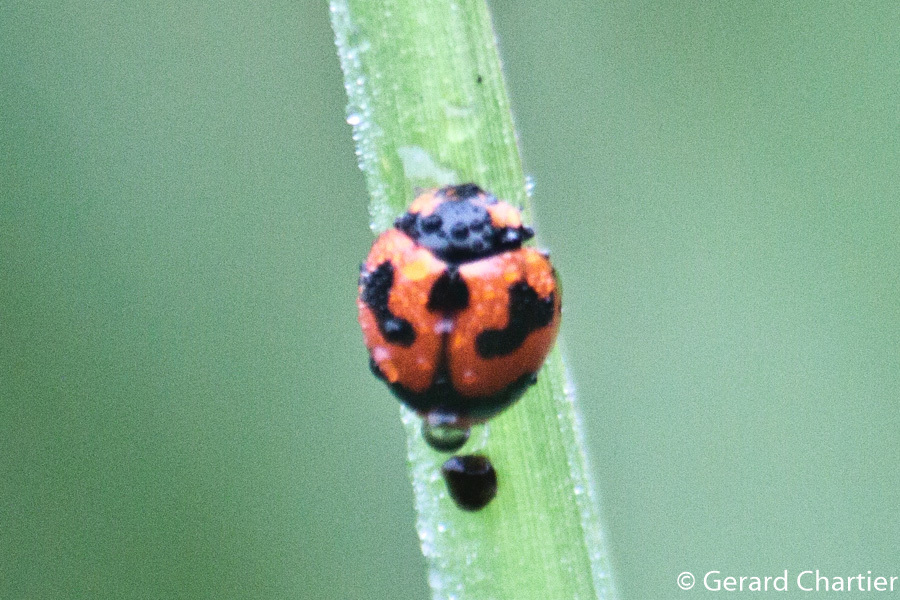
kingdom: Animalia
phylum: Arthropoda
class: Insecta
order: Coleoptera
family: Coccinellidae
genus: Coccinella
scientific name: Coccinella transversalis
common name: Transverse lady beetle
